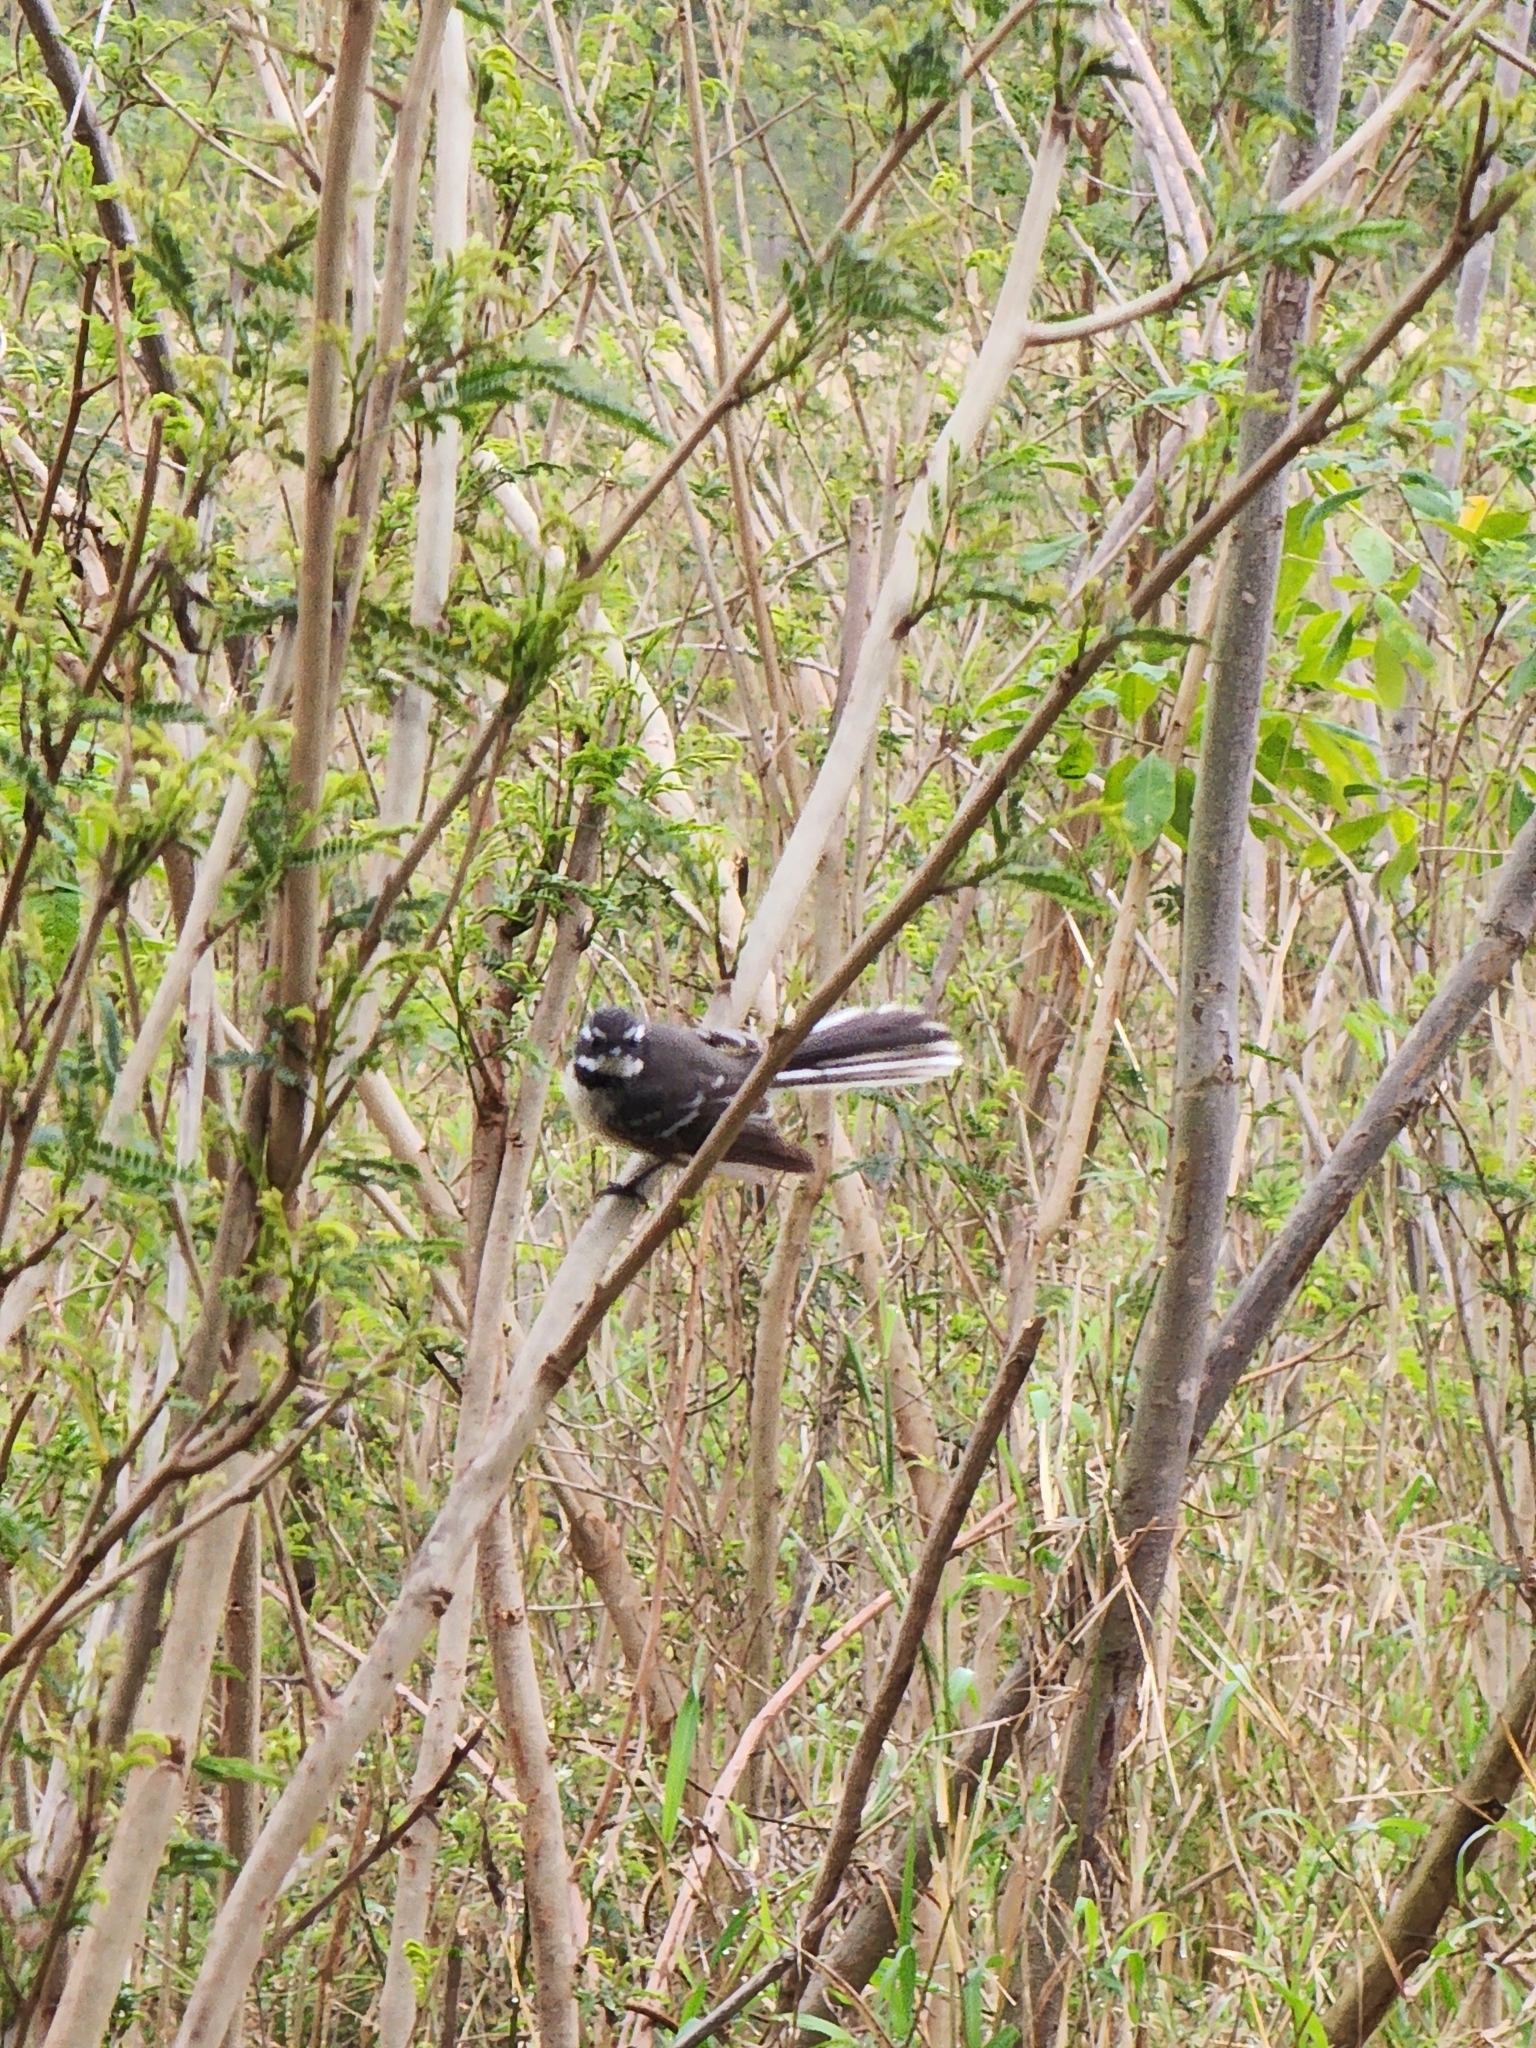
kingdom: Animalia
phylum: Chordata
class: Aves
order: Passeriformes
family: Rhipiduridae
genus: Rhipidura
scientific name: Rhipidura albiscapa
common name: Grey fantail
